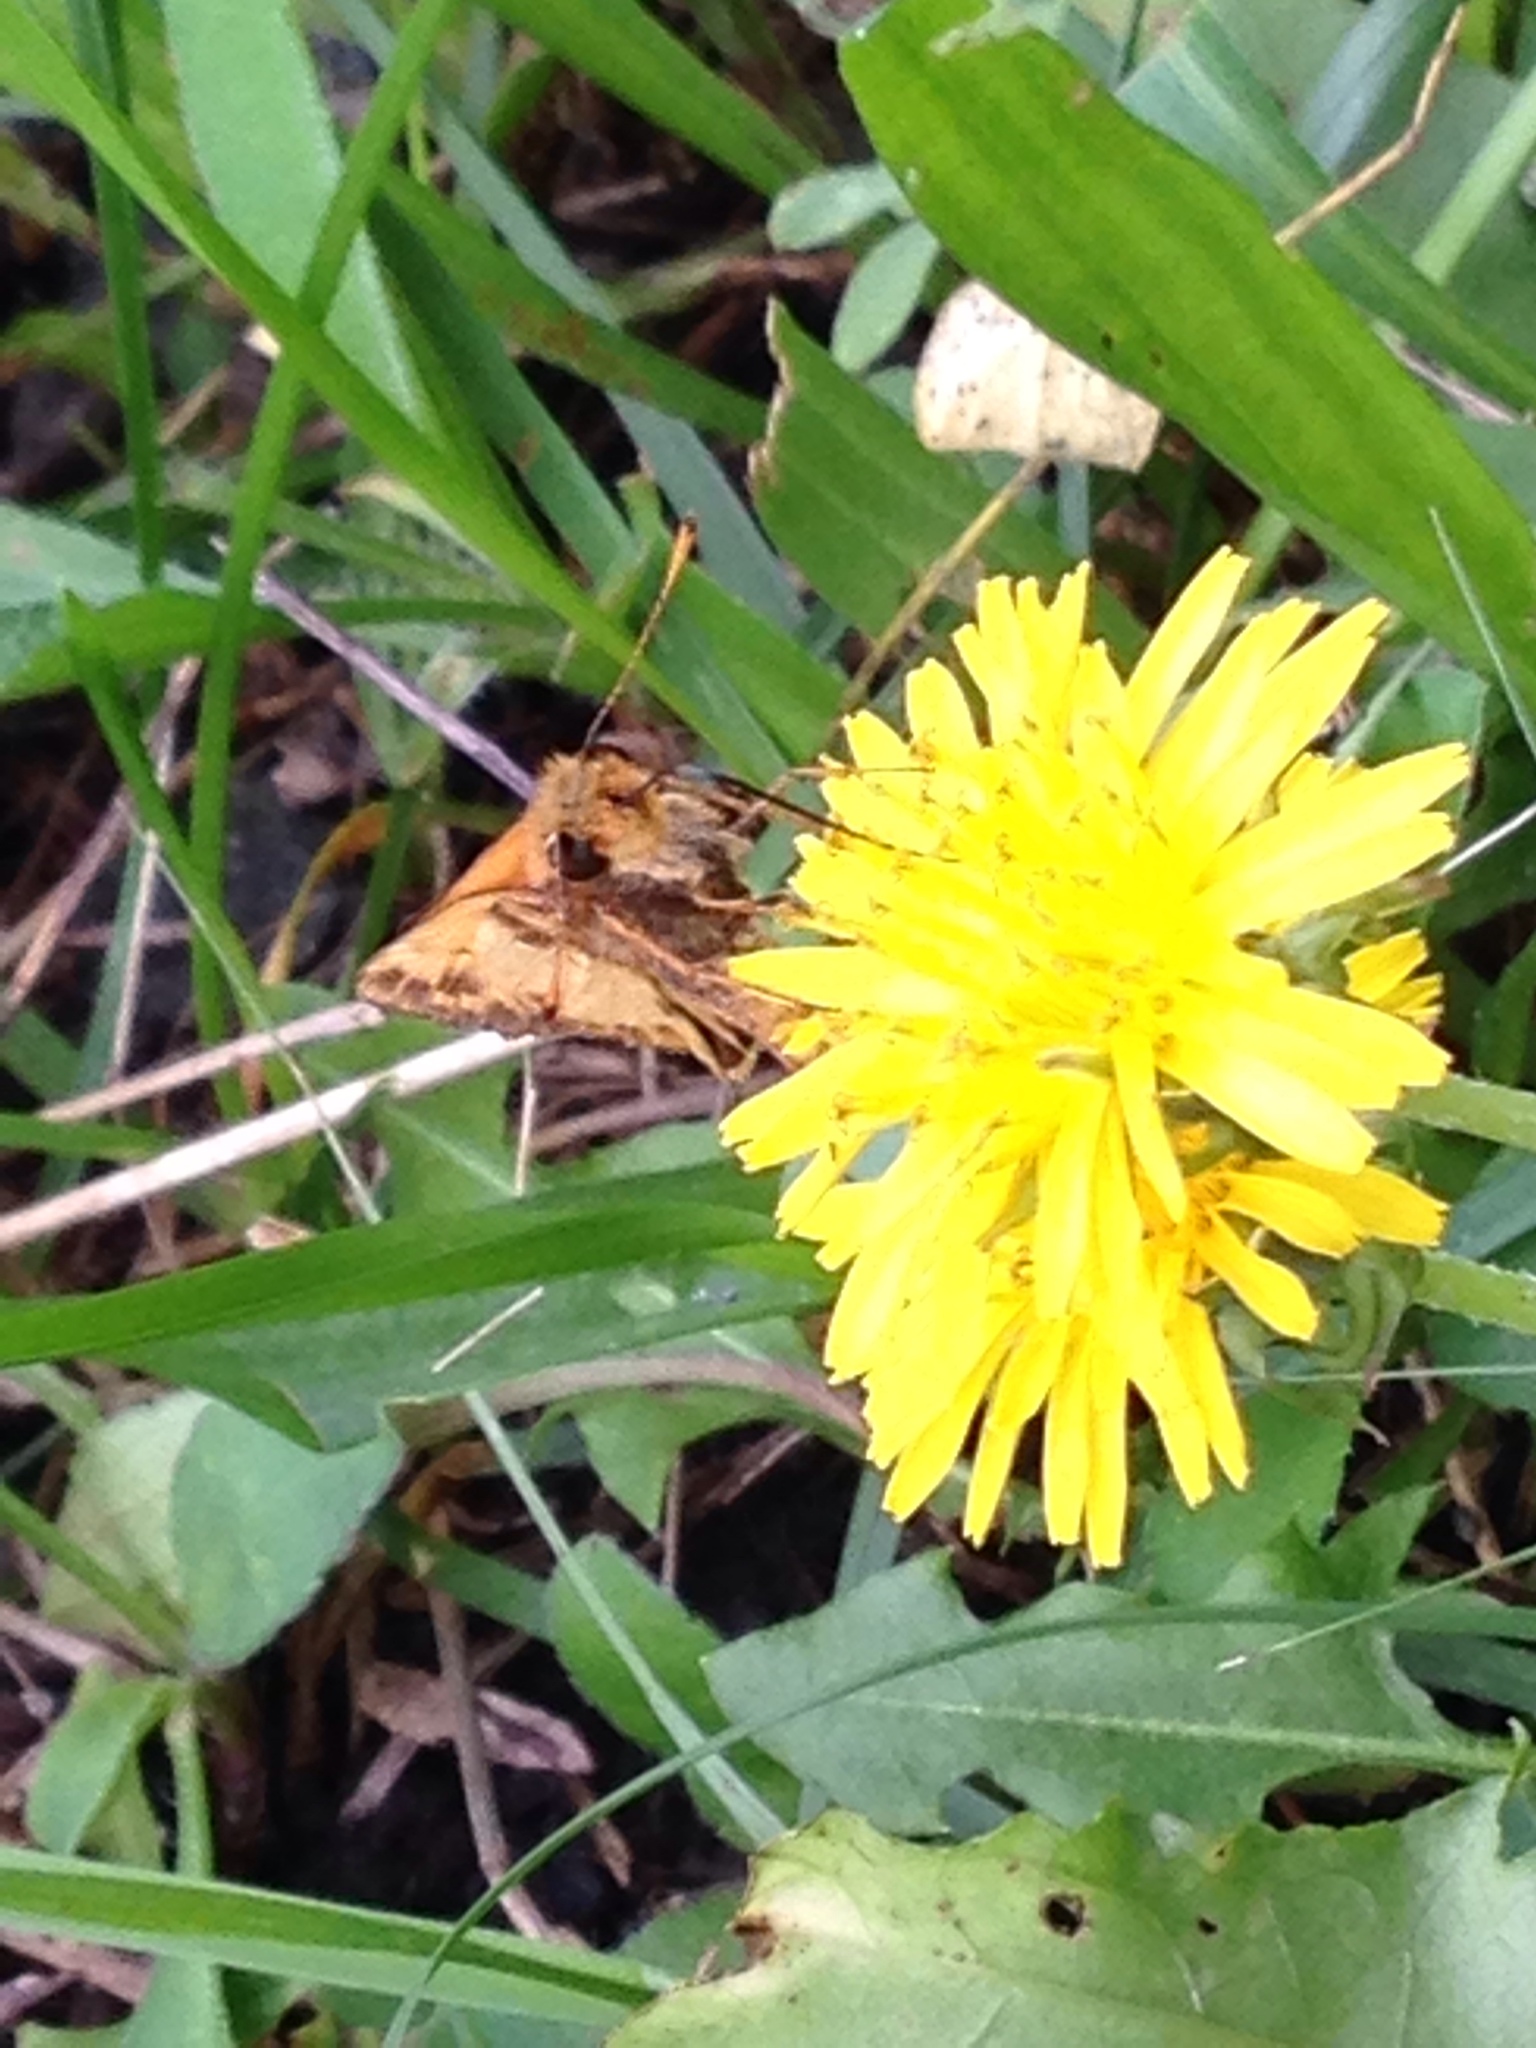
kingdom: Animalia
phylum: Arthropoda
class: Insecta
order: Lepidoptera
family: Hesperiidae
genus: Lon
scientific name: Lon zabulon
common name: Zabulon skipper
